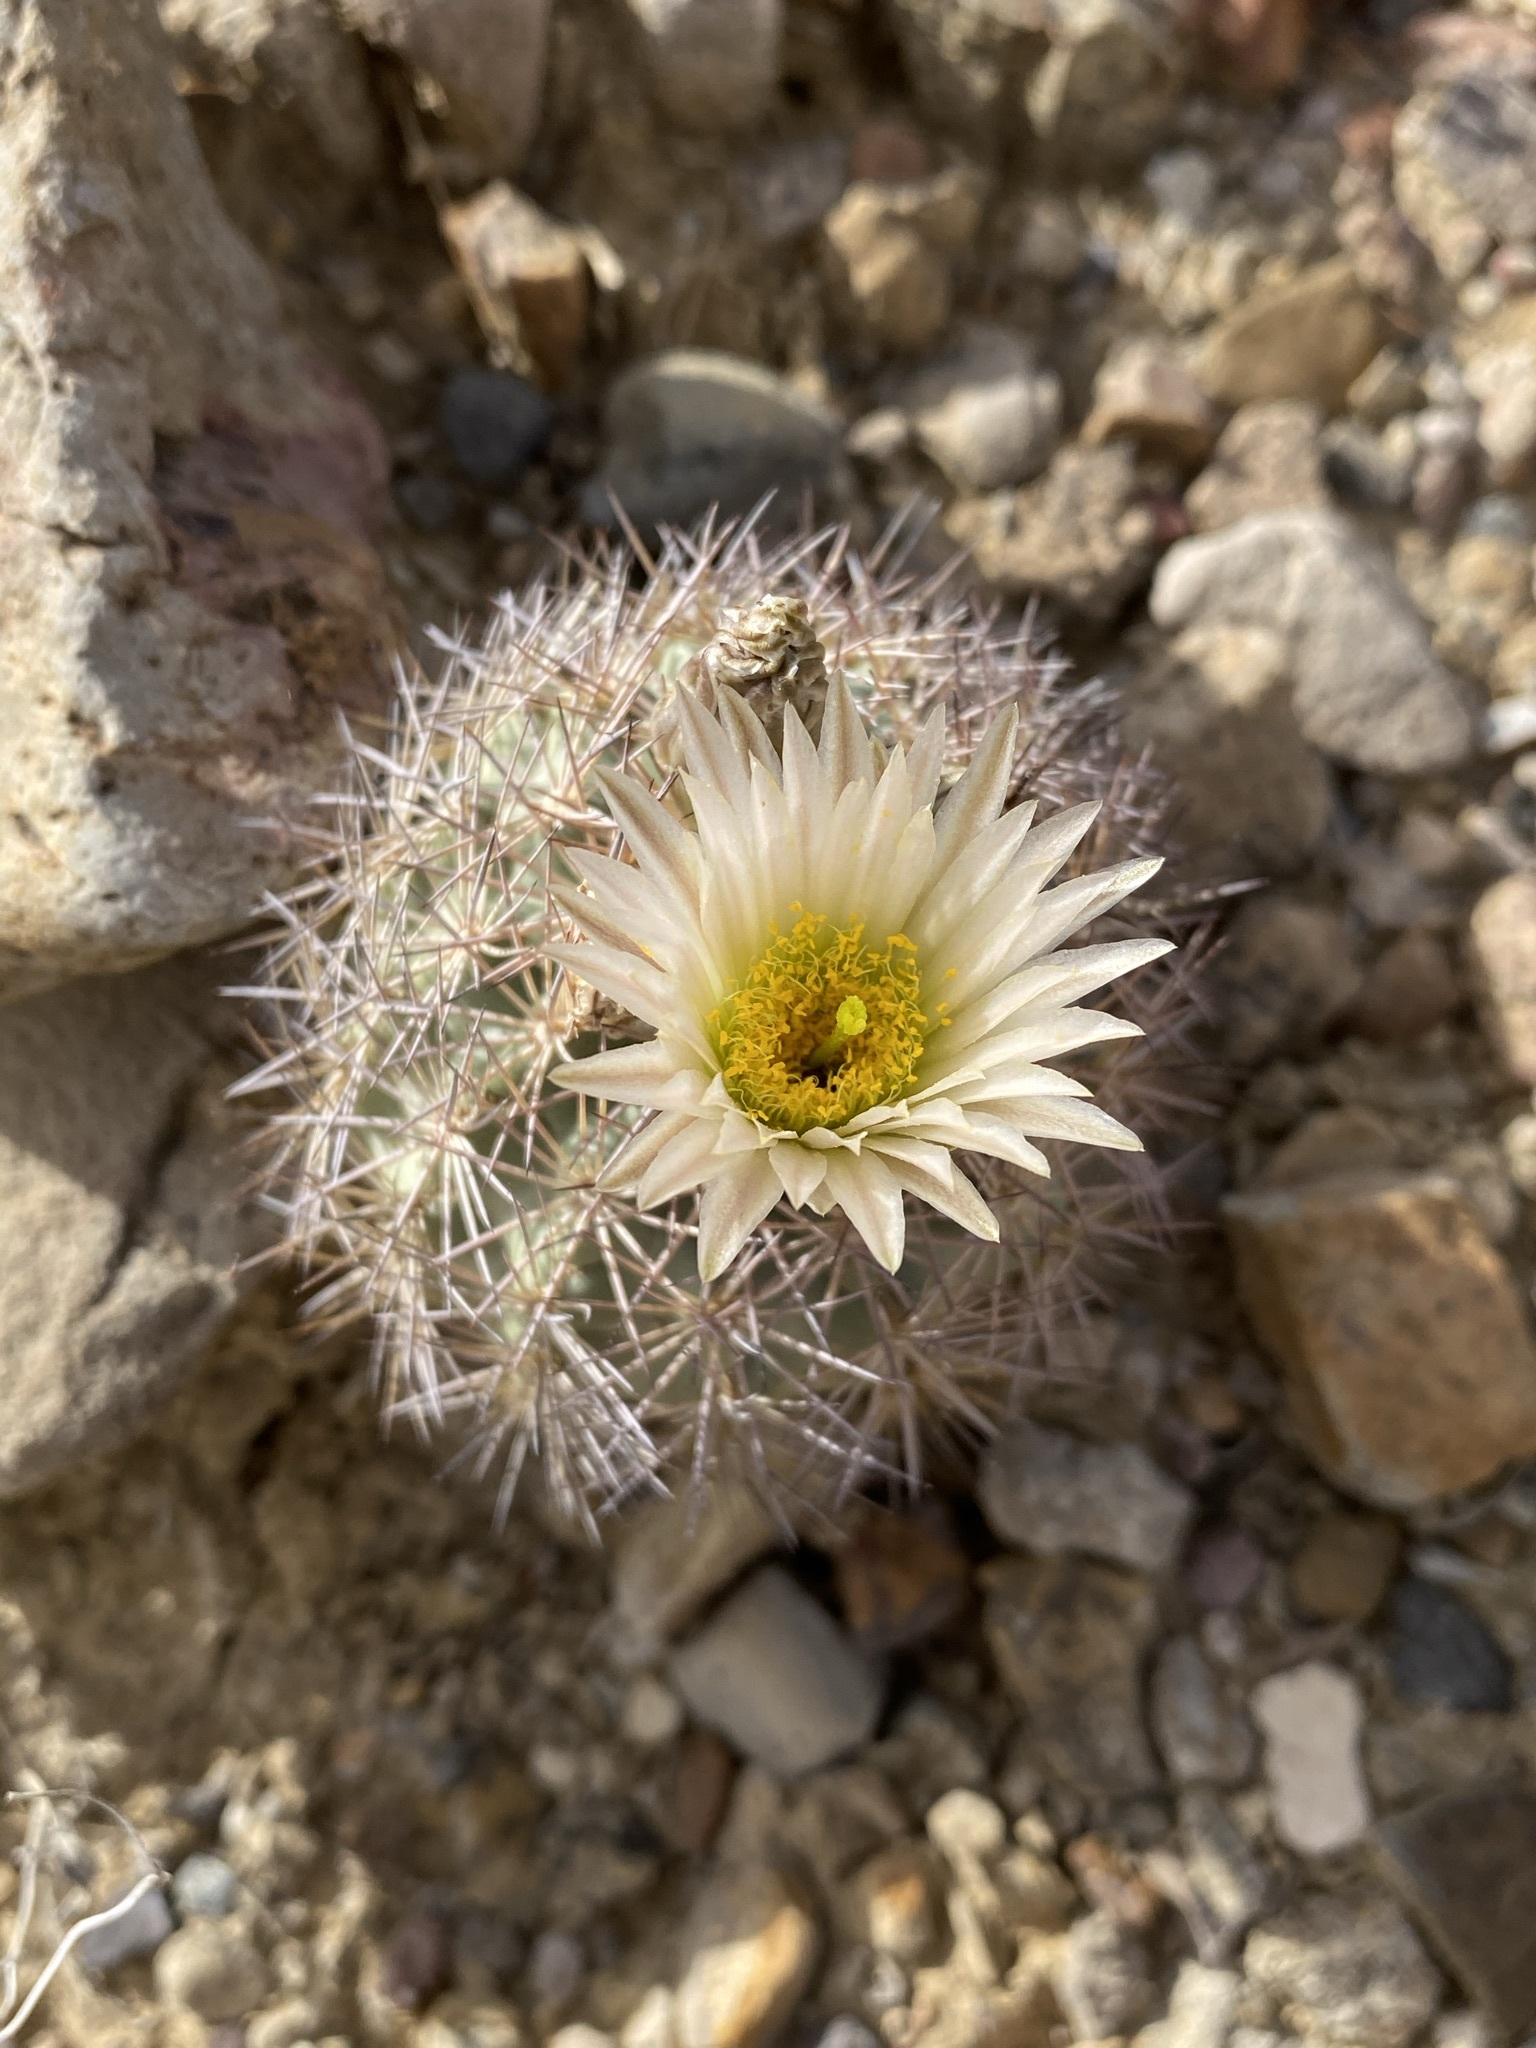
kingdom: Plantae
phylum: Tracheophyta
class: Magnoliopsida
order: Caryophyllales
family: Cactaceae
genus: Sclerocactus
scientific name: Sclerocactus warnockii
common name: Pineapple cactus
